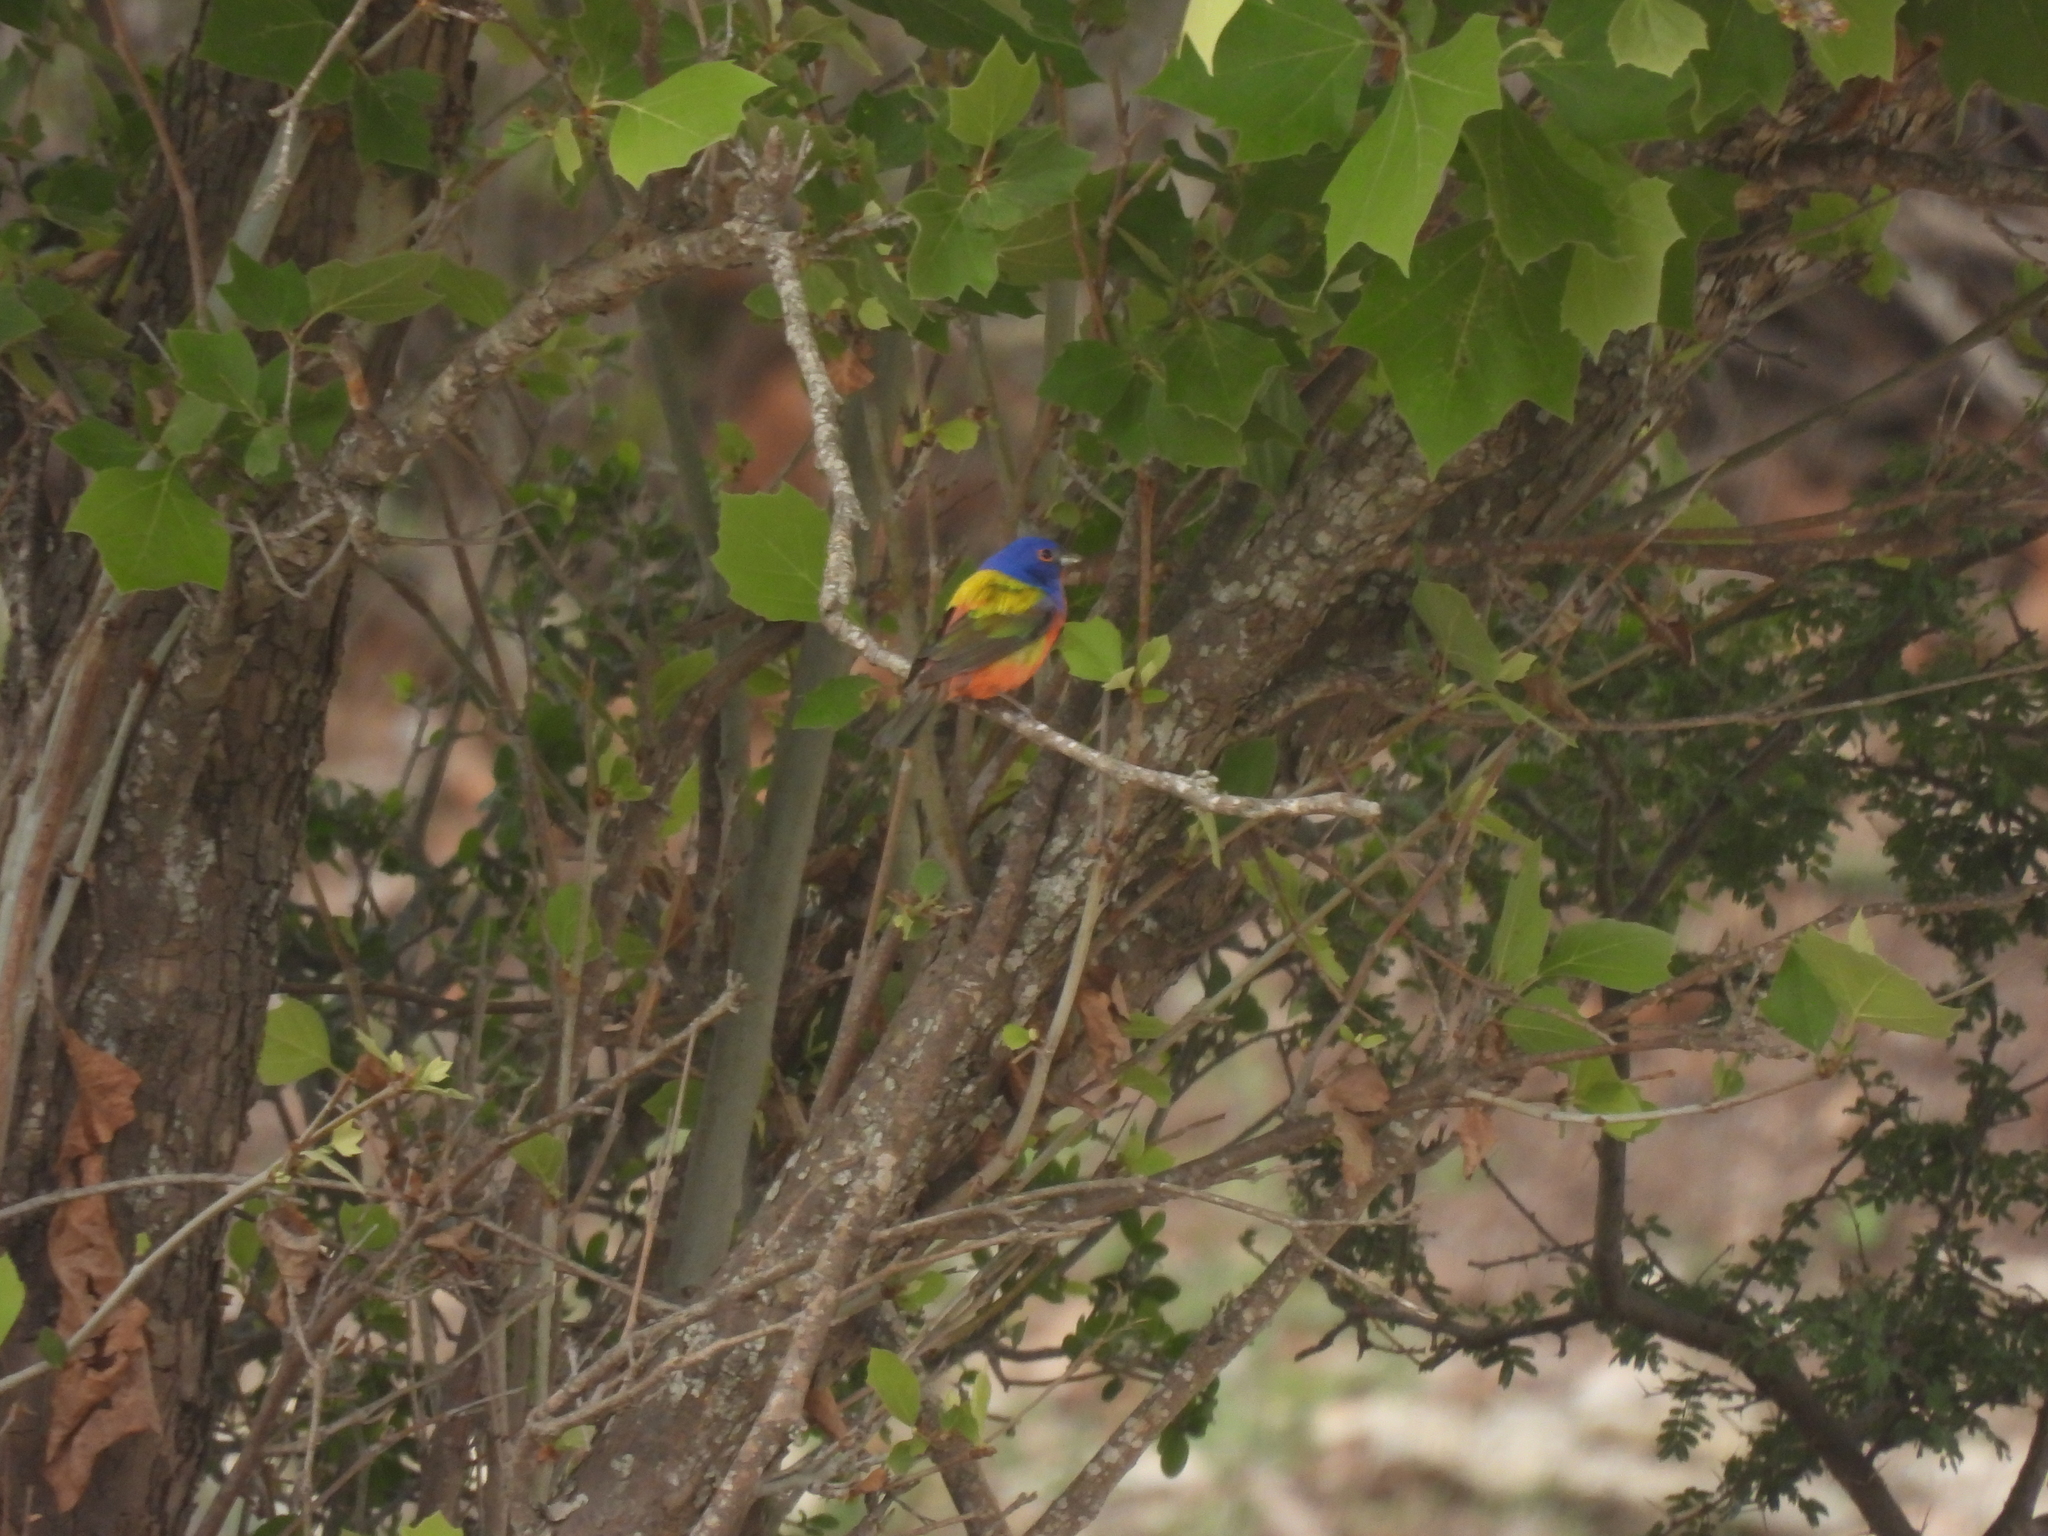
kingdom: Animalia
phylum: Chordata
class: Aves
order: Passeriformes
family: Cardinalidae
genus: Passerina
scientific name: Passerina ciris
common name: Painted bunting
